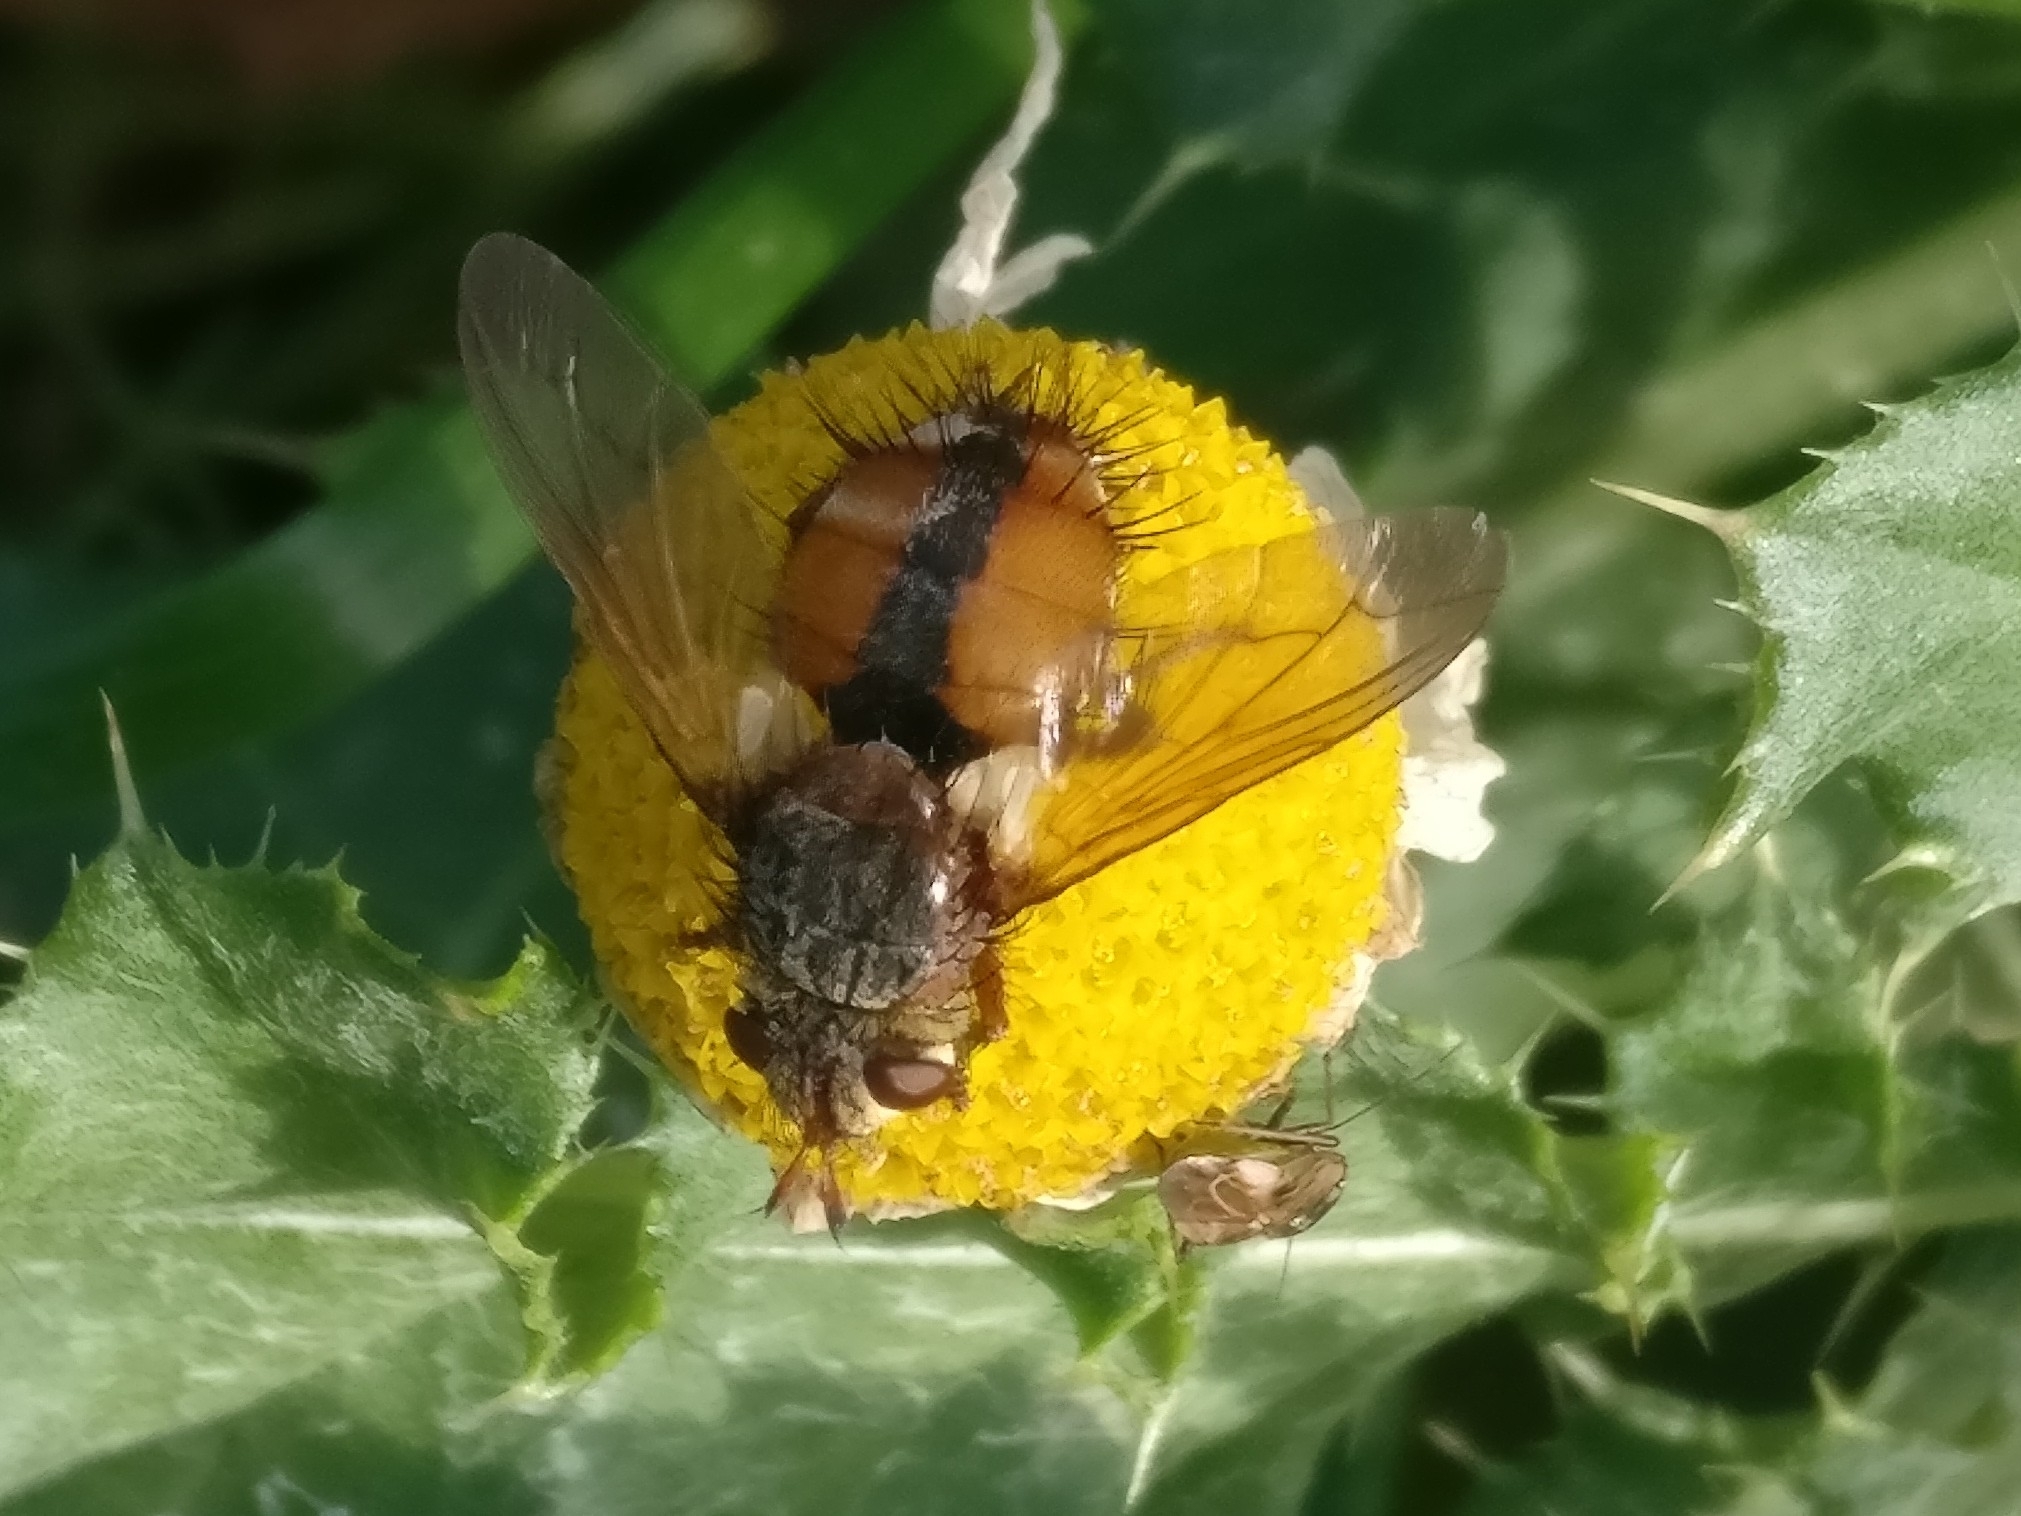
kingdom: Animalia
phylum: Arthropoda
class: Insecta
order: Diptera
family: Tachinidae
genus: Tachina
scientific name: Tachina fera
